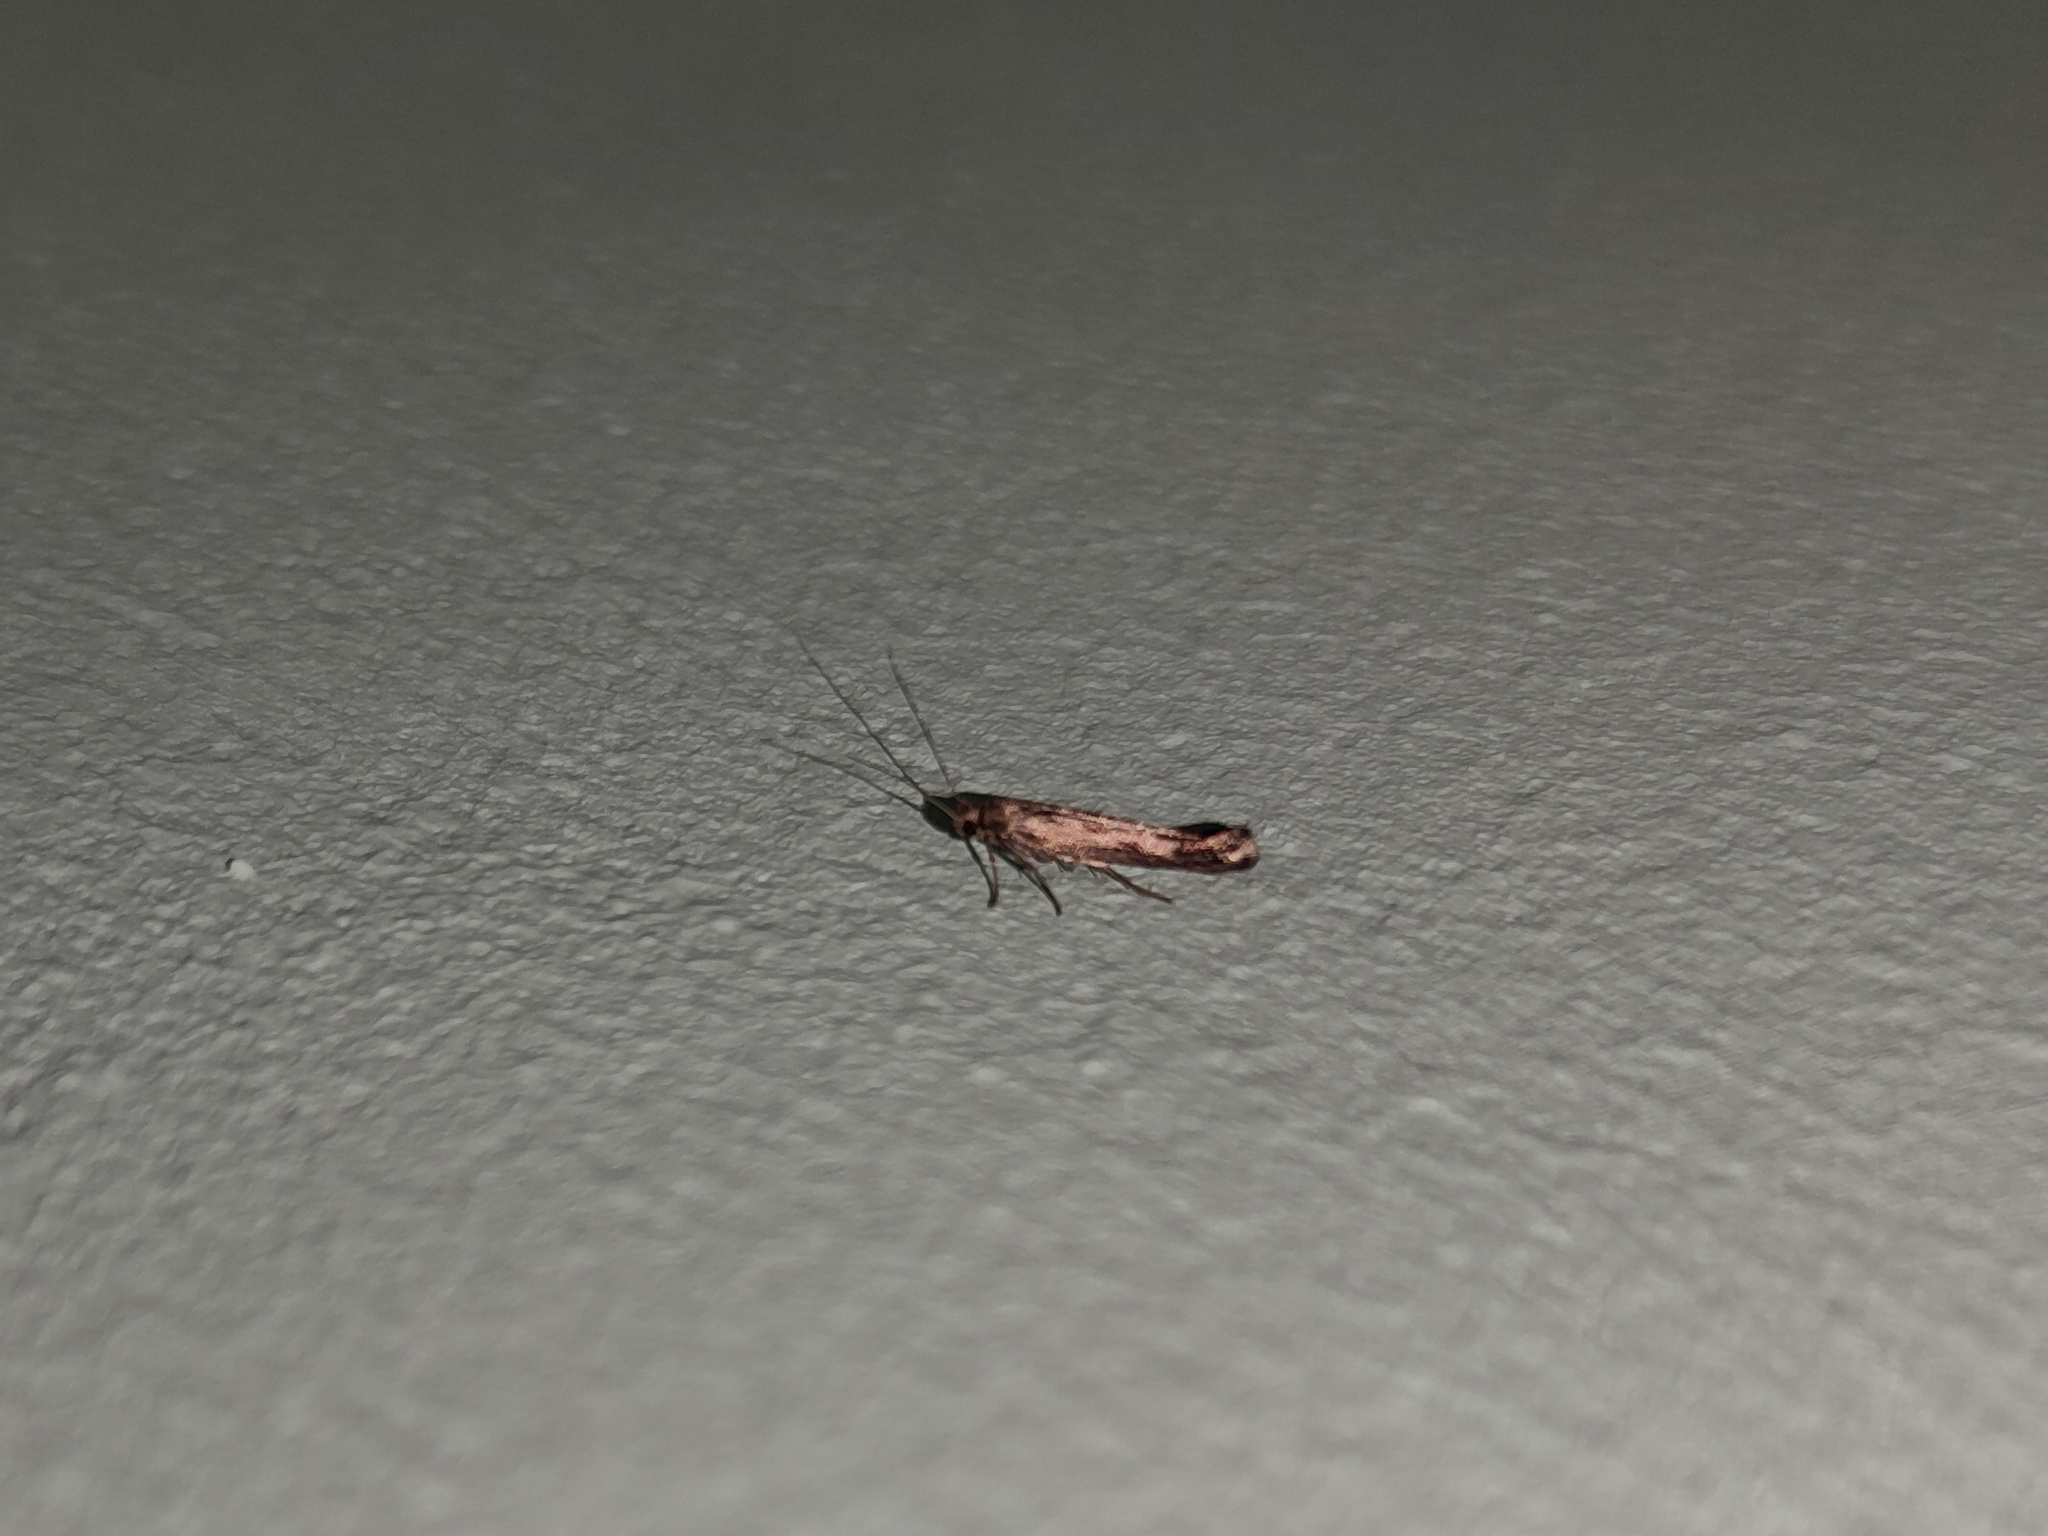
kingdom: Animalia
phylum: Arthropoda
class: Insecta
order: Lepidoptera
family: Scythrididae
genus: Scythris
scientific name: Scythris limbella
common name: Goosefoot owlet
